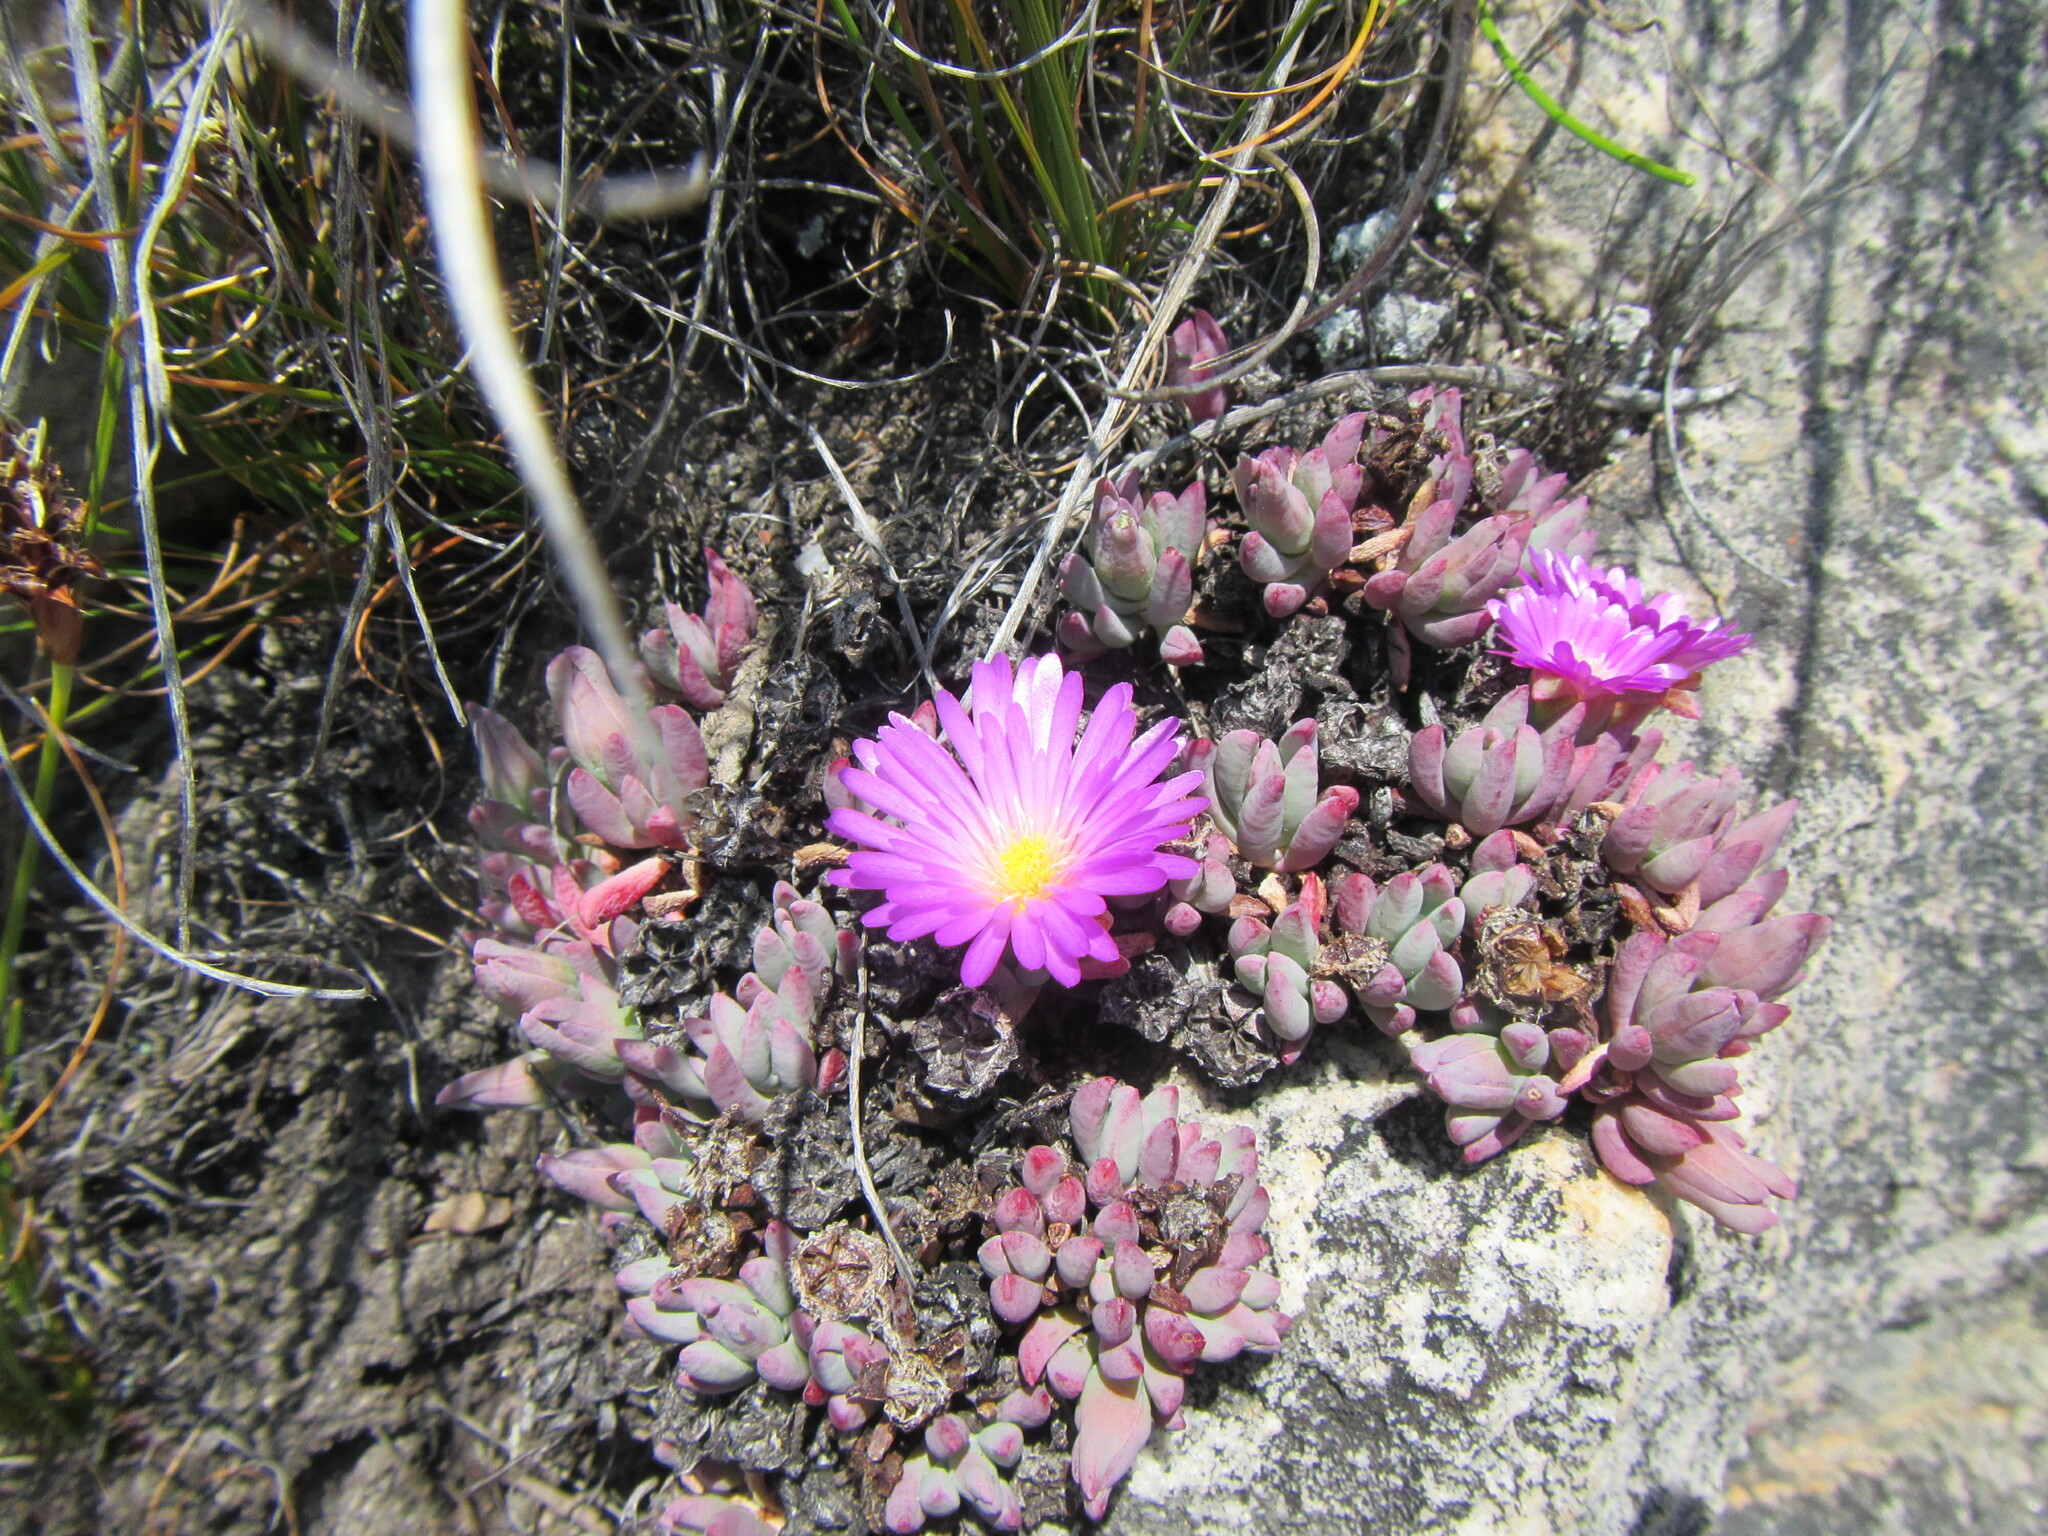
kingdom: Plantae
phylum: Tracheophyta
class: Magnoliopsida
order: Caryophyllales
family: Aizoaceae
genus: Esterhuysenia
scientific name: Esterhuysenia alpina
